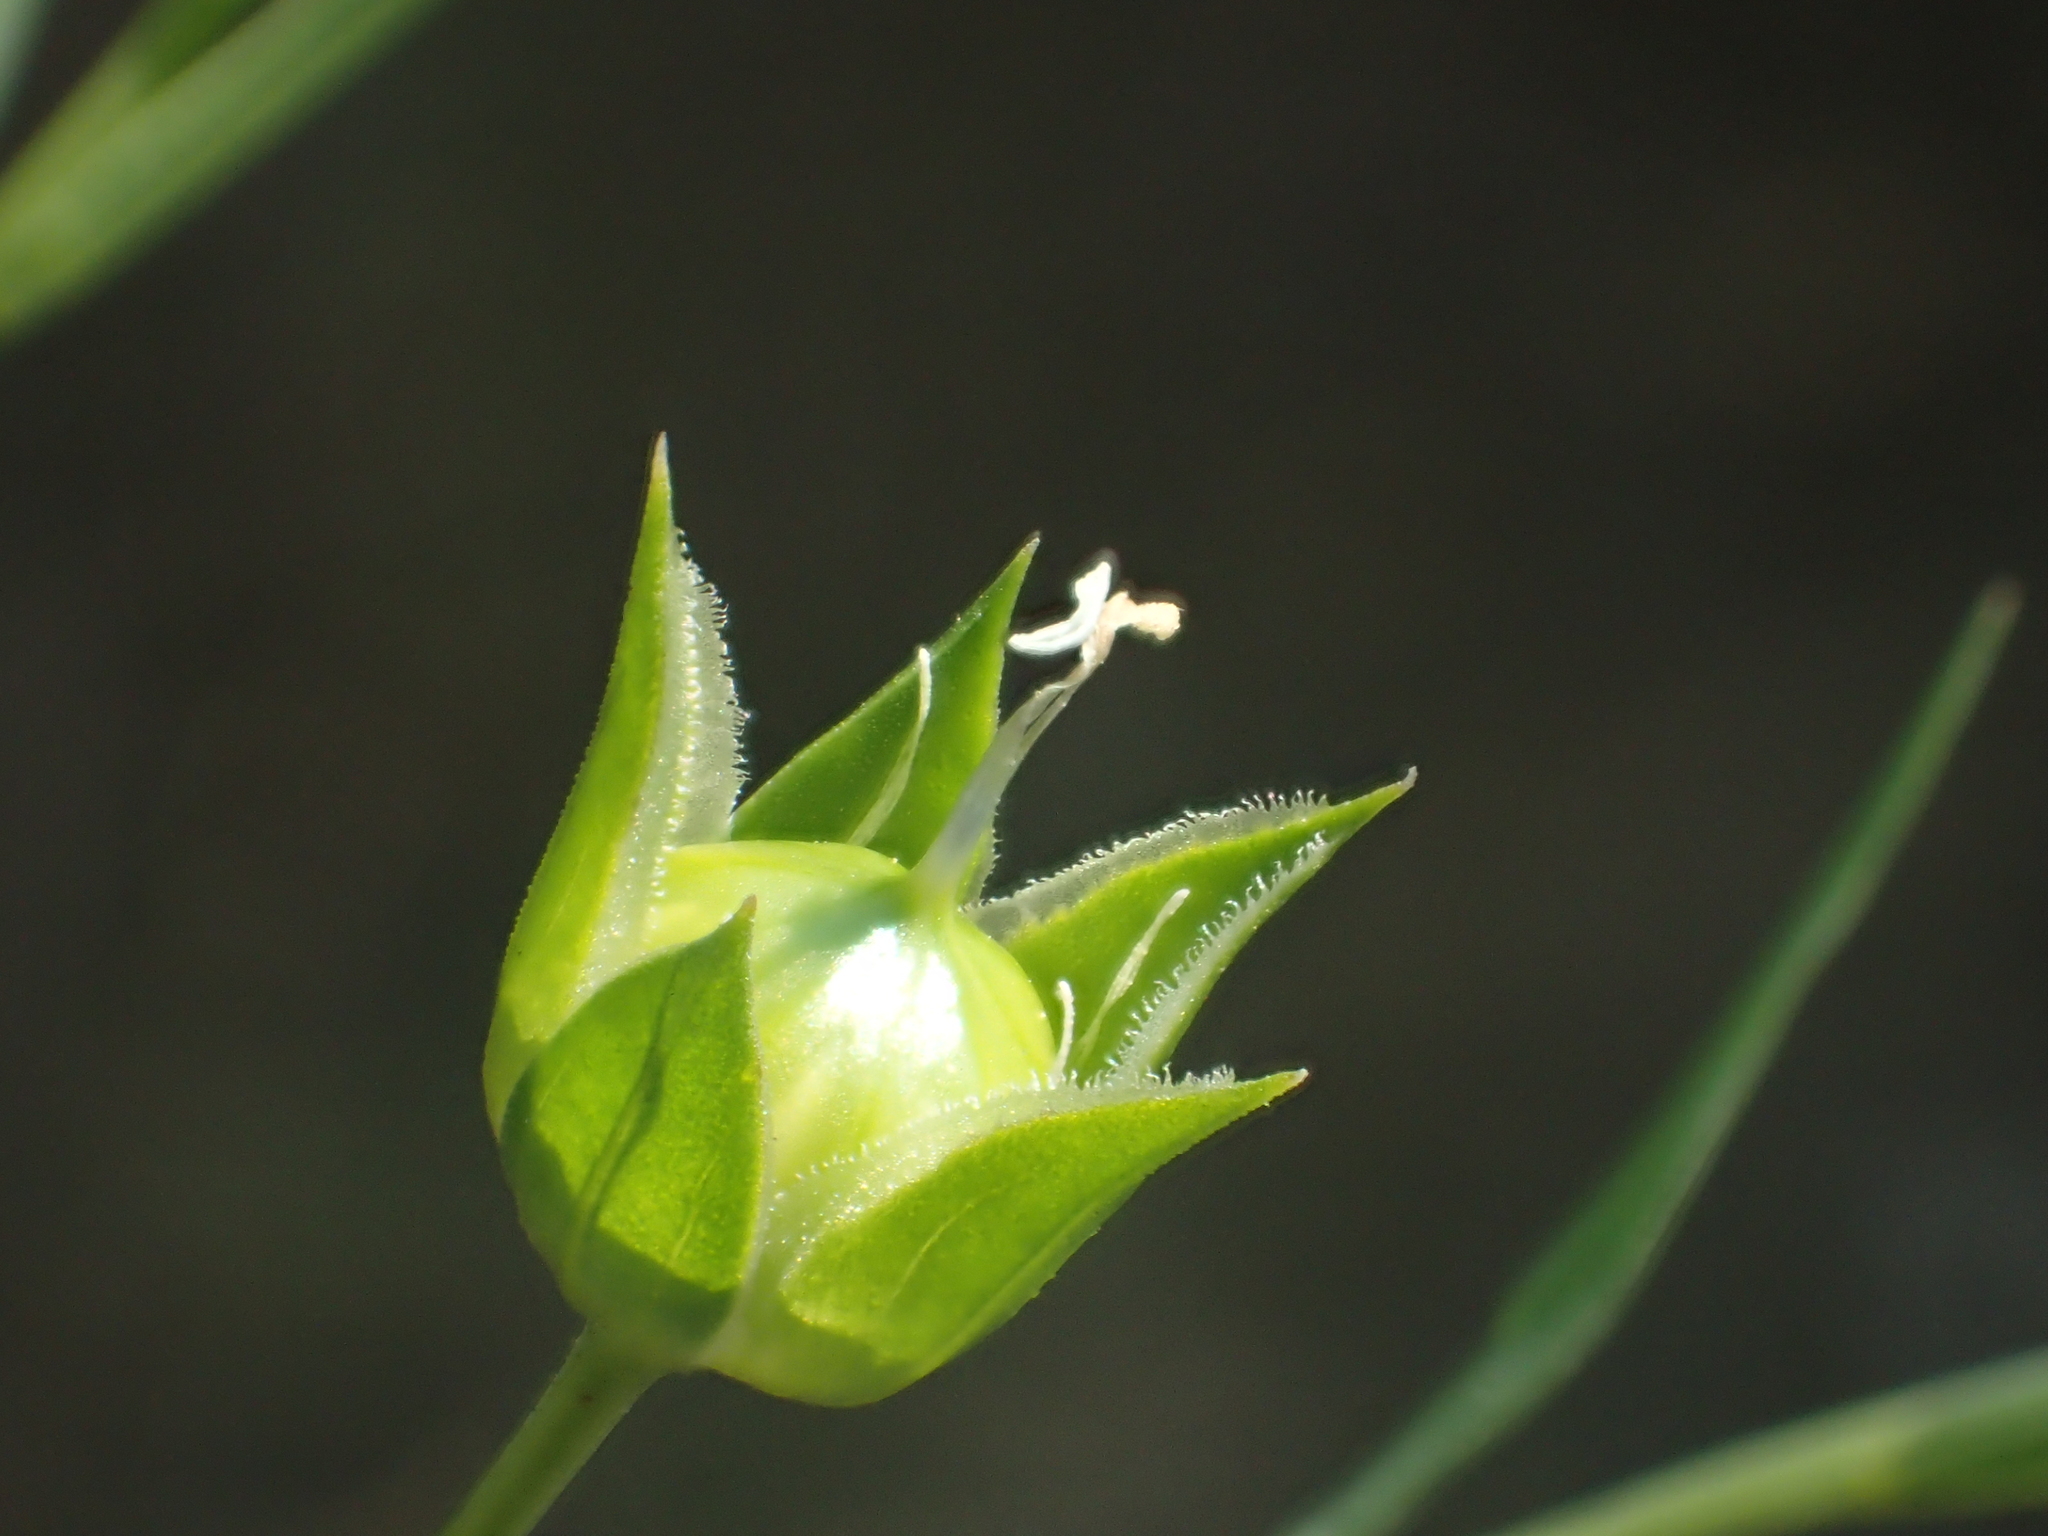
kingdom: Plantae
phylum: Tracheophyta
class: Magnoliopsida
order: Malpighiales
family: Linaceae
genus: Linum
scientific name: Linum usitatissimum
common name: Flax
